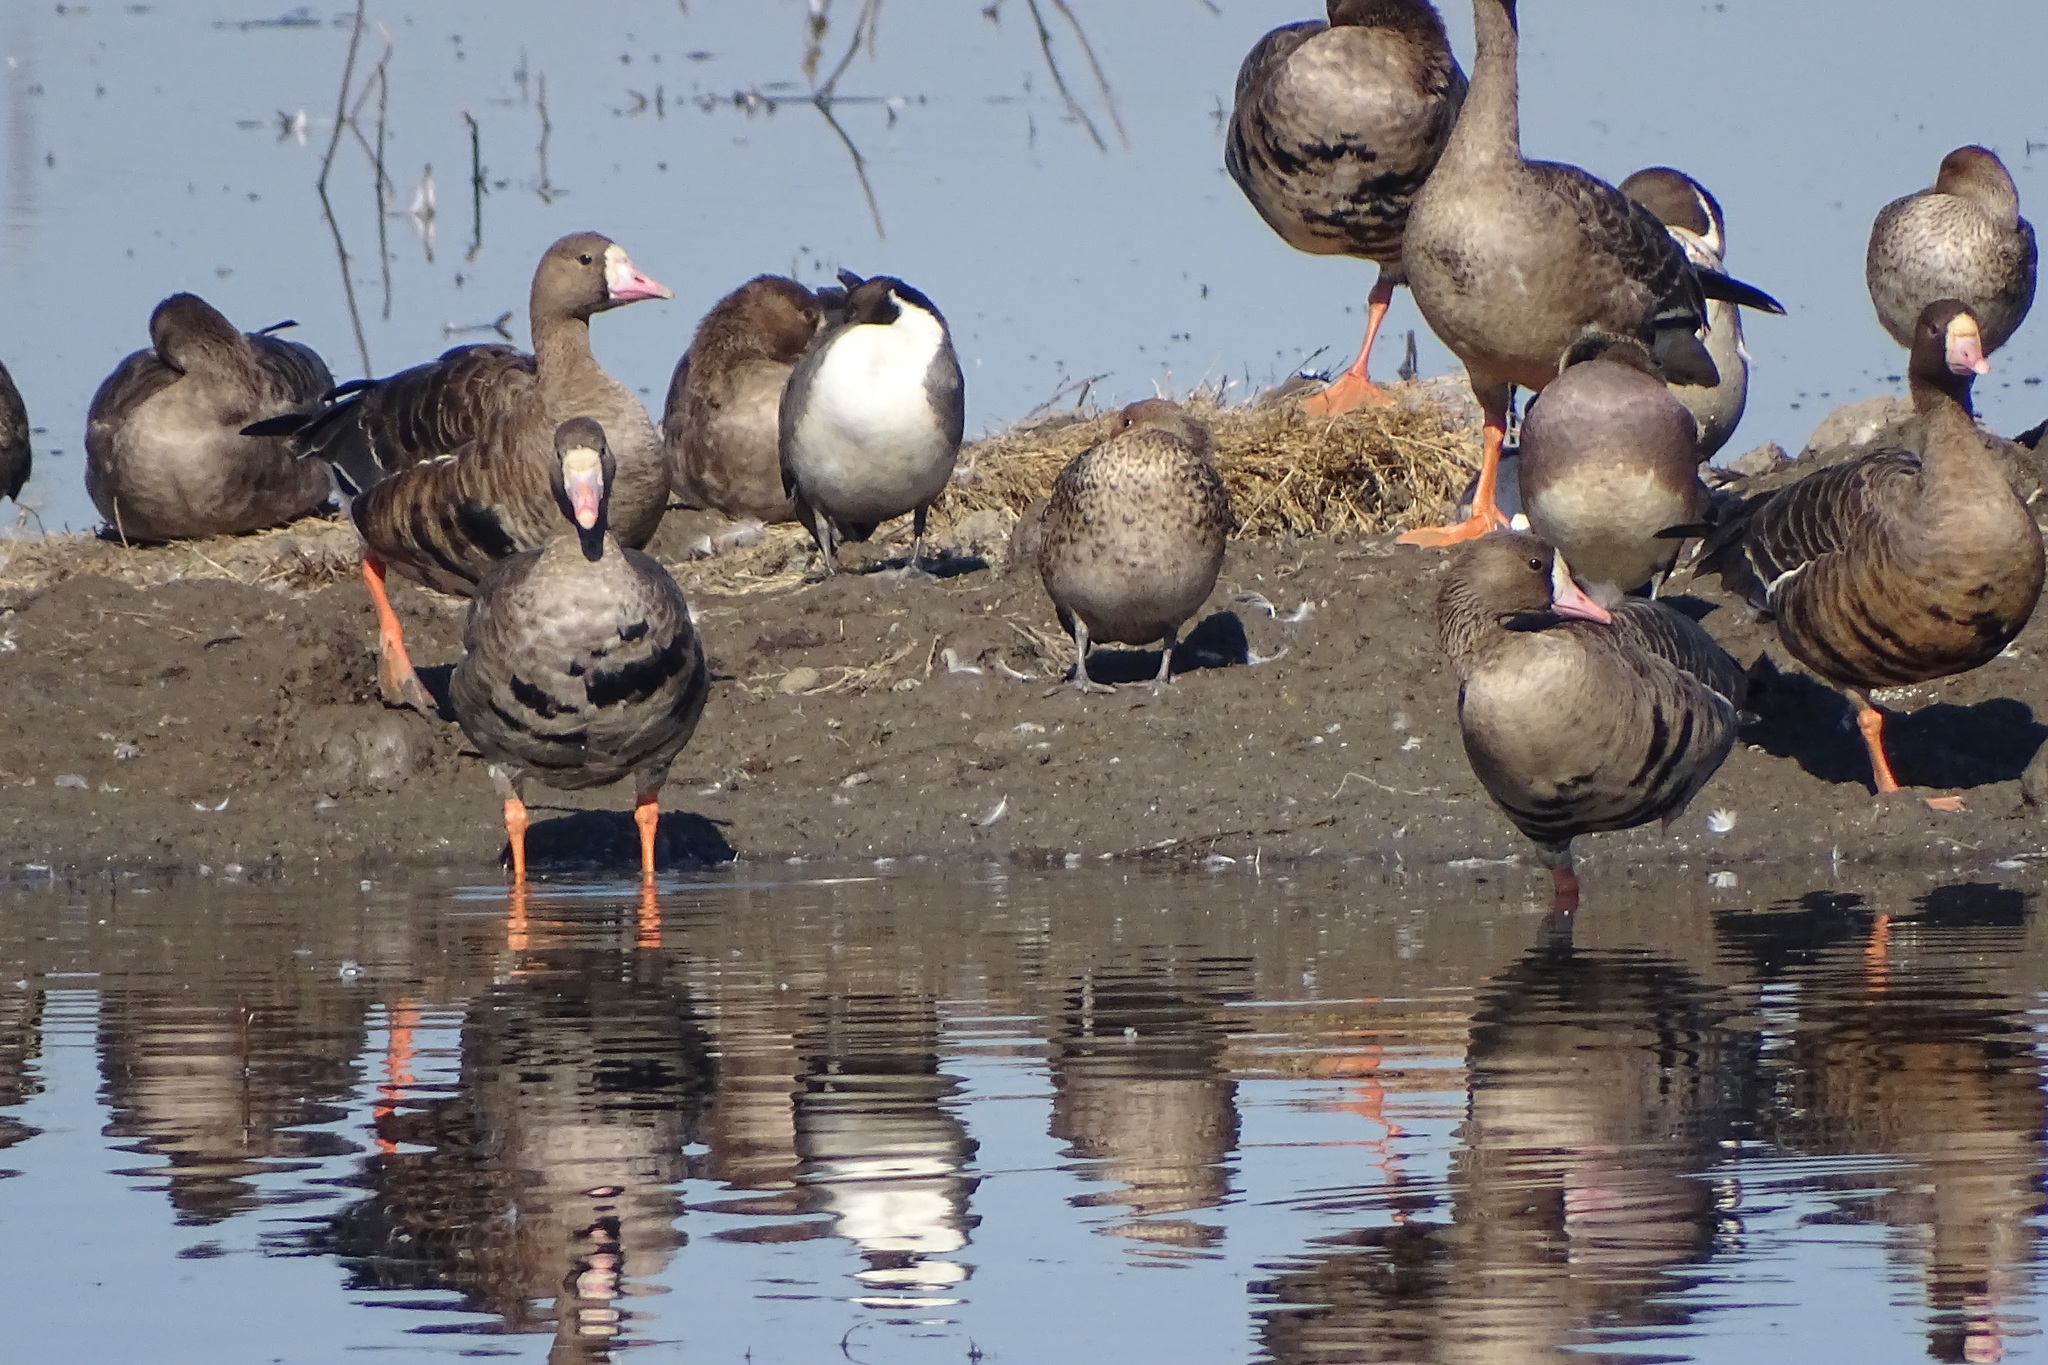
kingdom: Animalia
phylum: Chordata
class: Aves
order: Anseriformes
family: Anatidae
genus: Anser
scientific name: Anser albifrons
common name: Greater white-fronted goose
